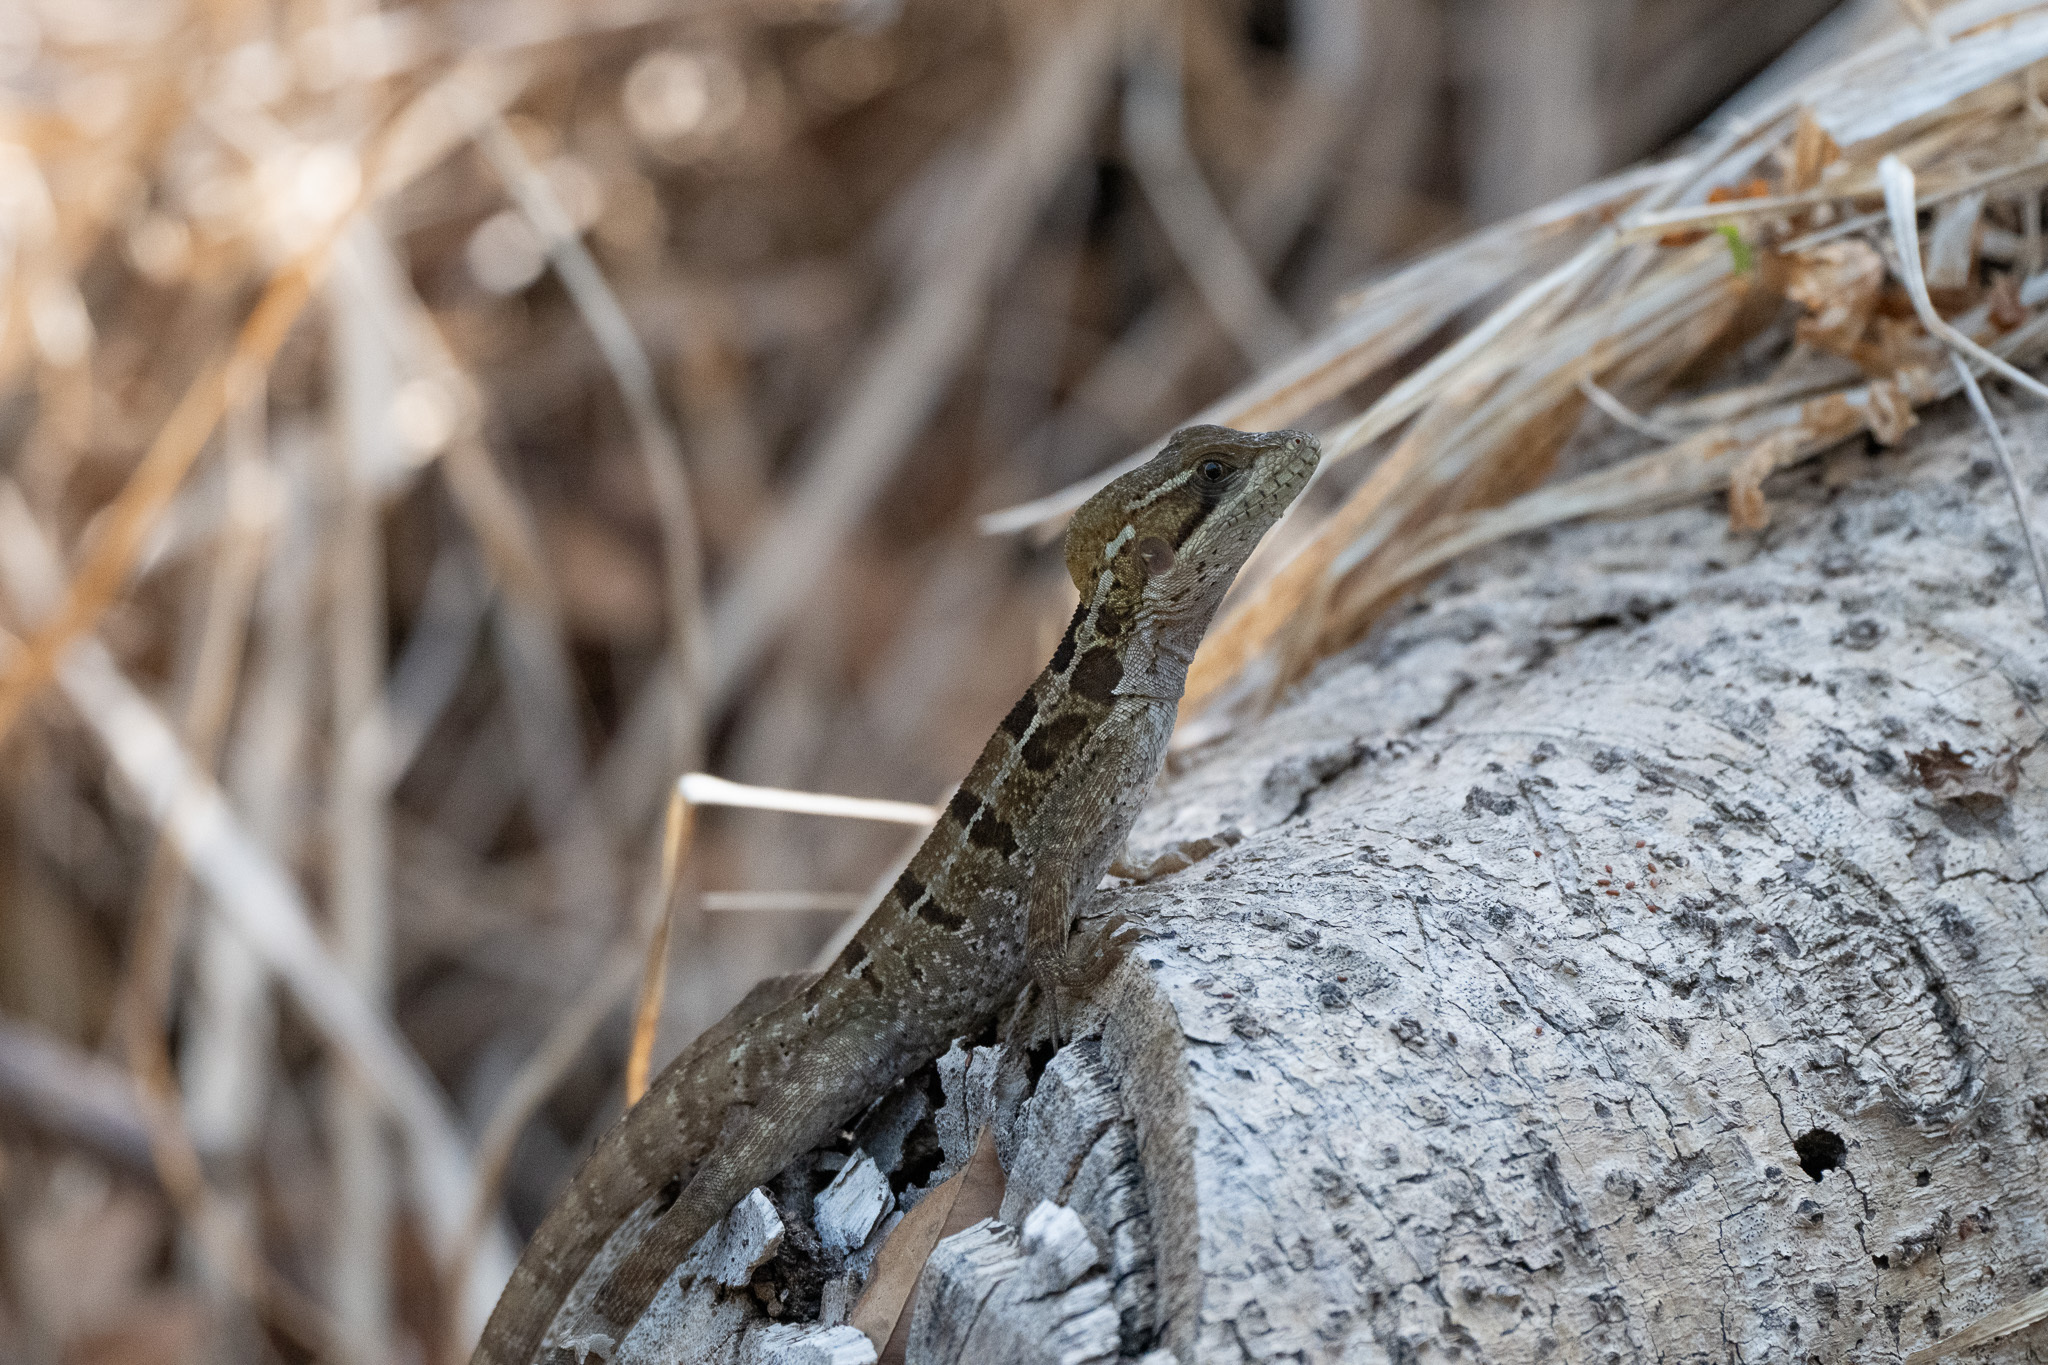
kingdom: Animalia
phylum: Chordata
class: Squamata
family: Corytophanidae
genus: Basiliscus
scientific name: Basiliscus vittatus
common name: Brown basilisk
